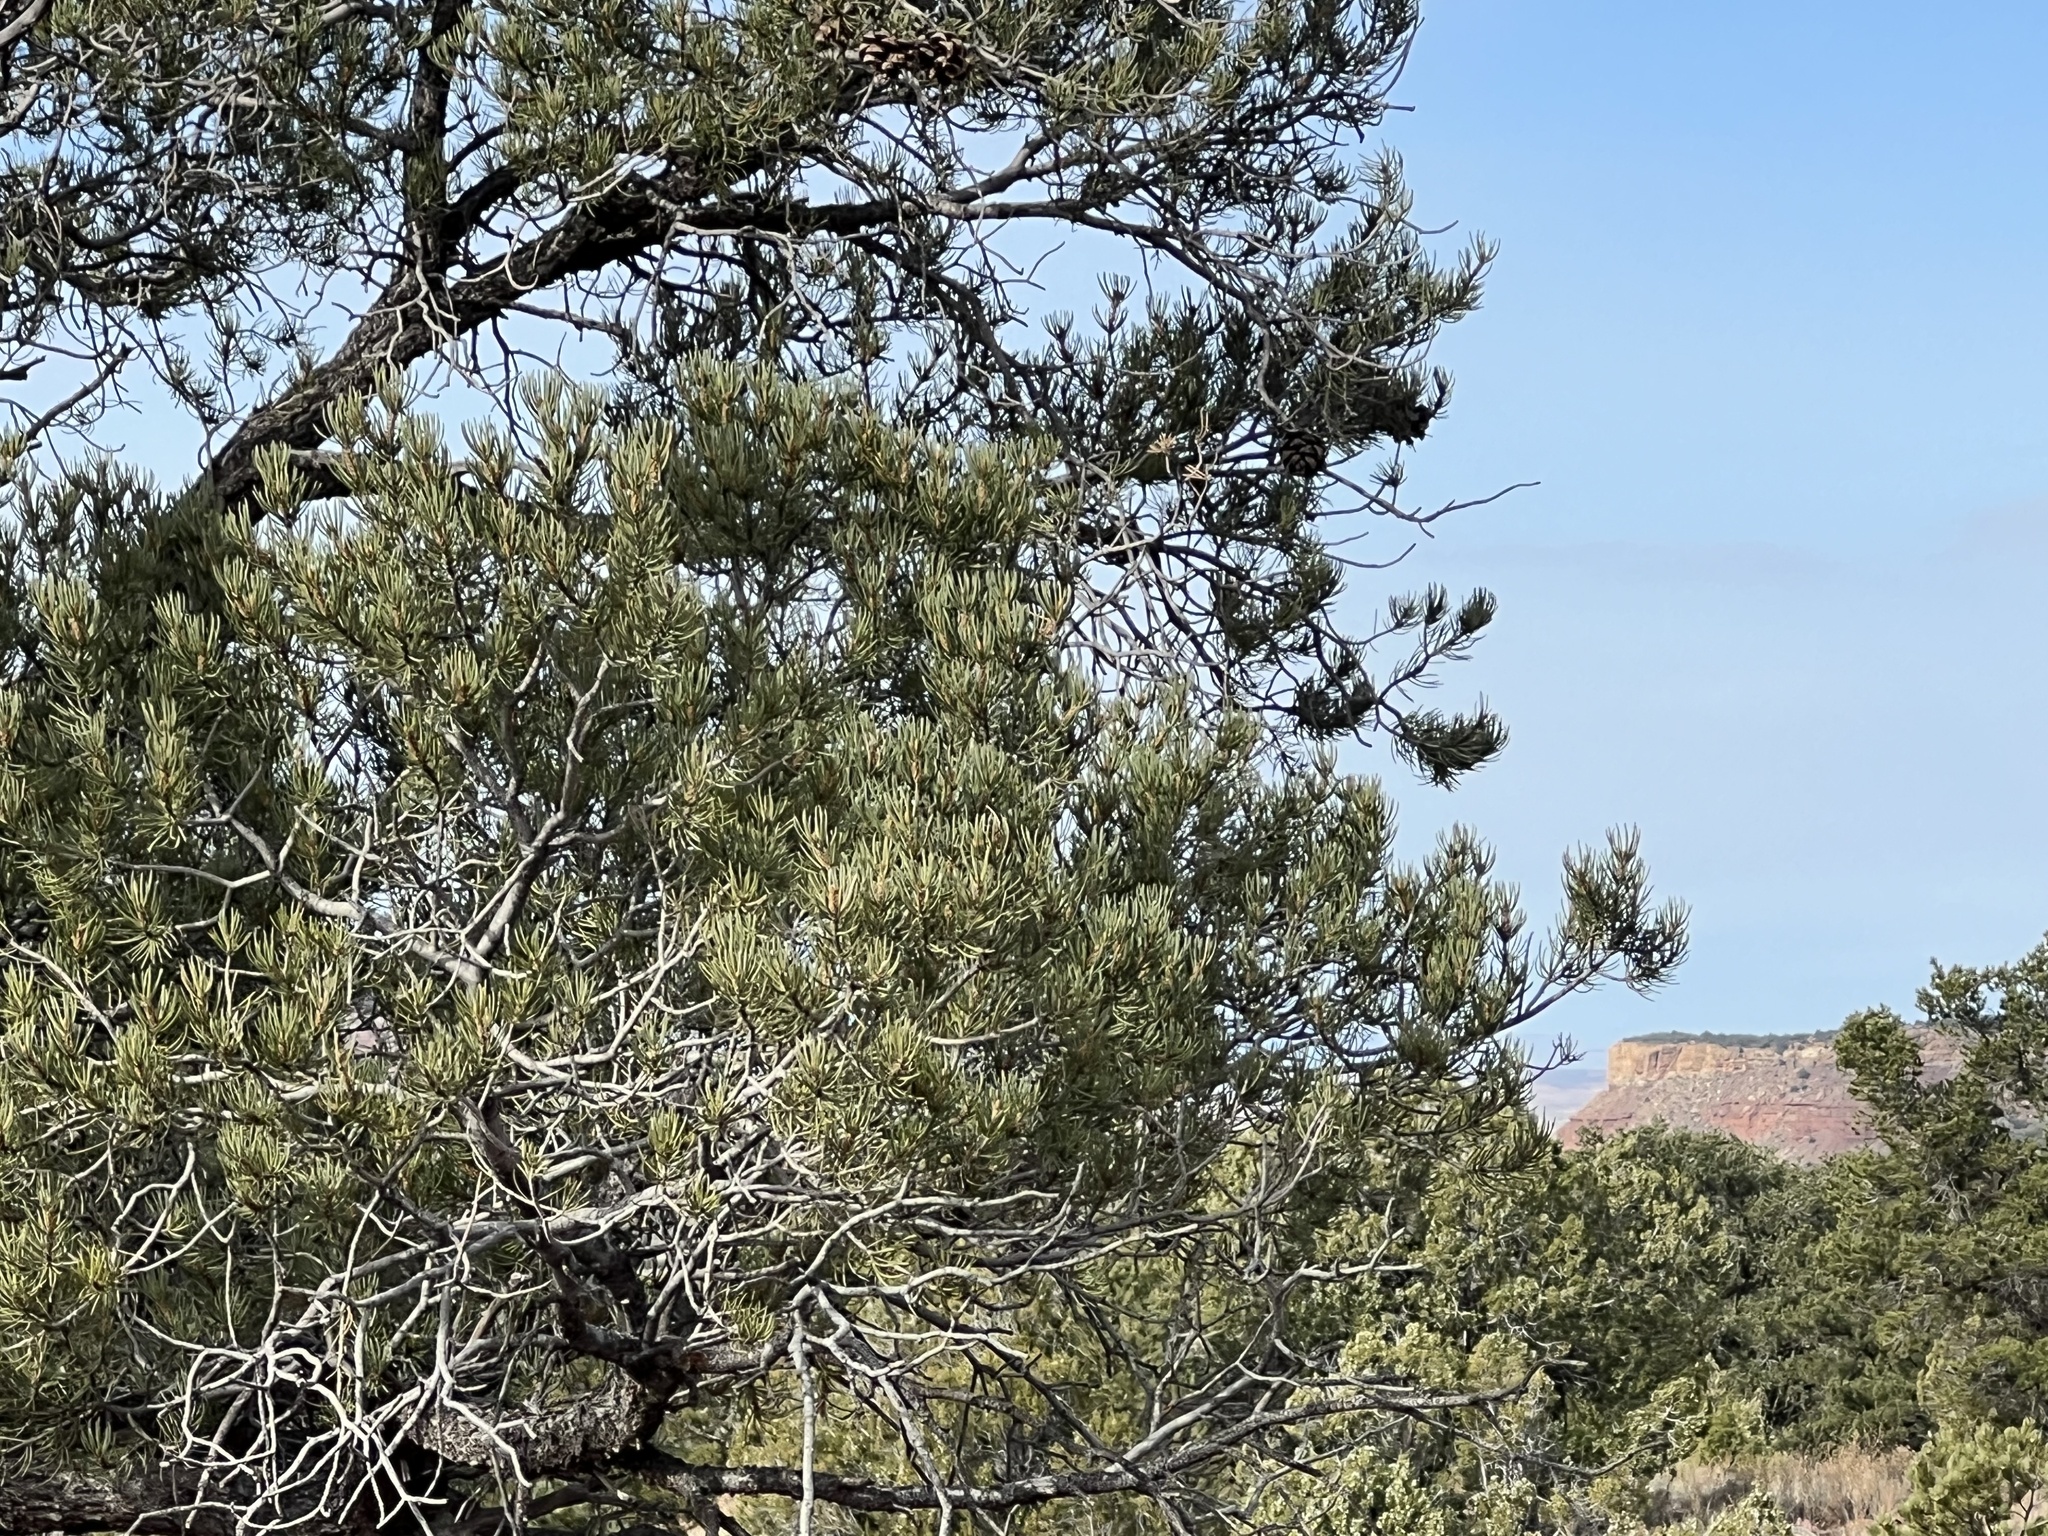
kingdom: Plantae
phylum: Tracheophyta
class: Pinopsida
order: Pinales
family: Pinaceae
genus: Pinus
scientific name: Pinus edulis
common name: Colorado pinyon
